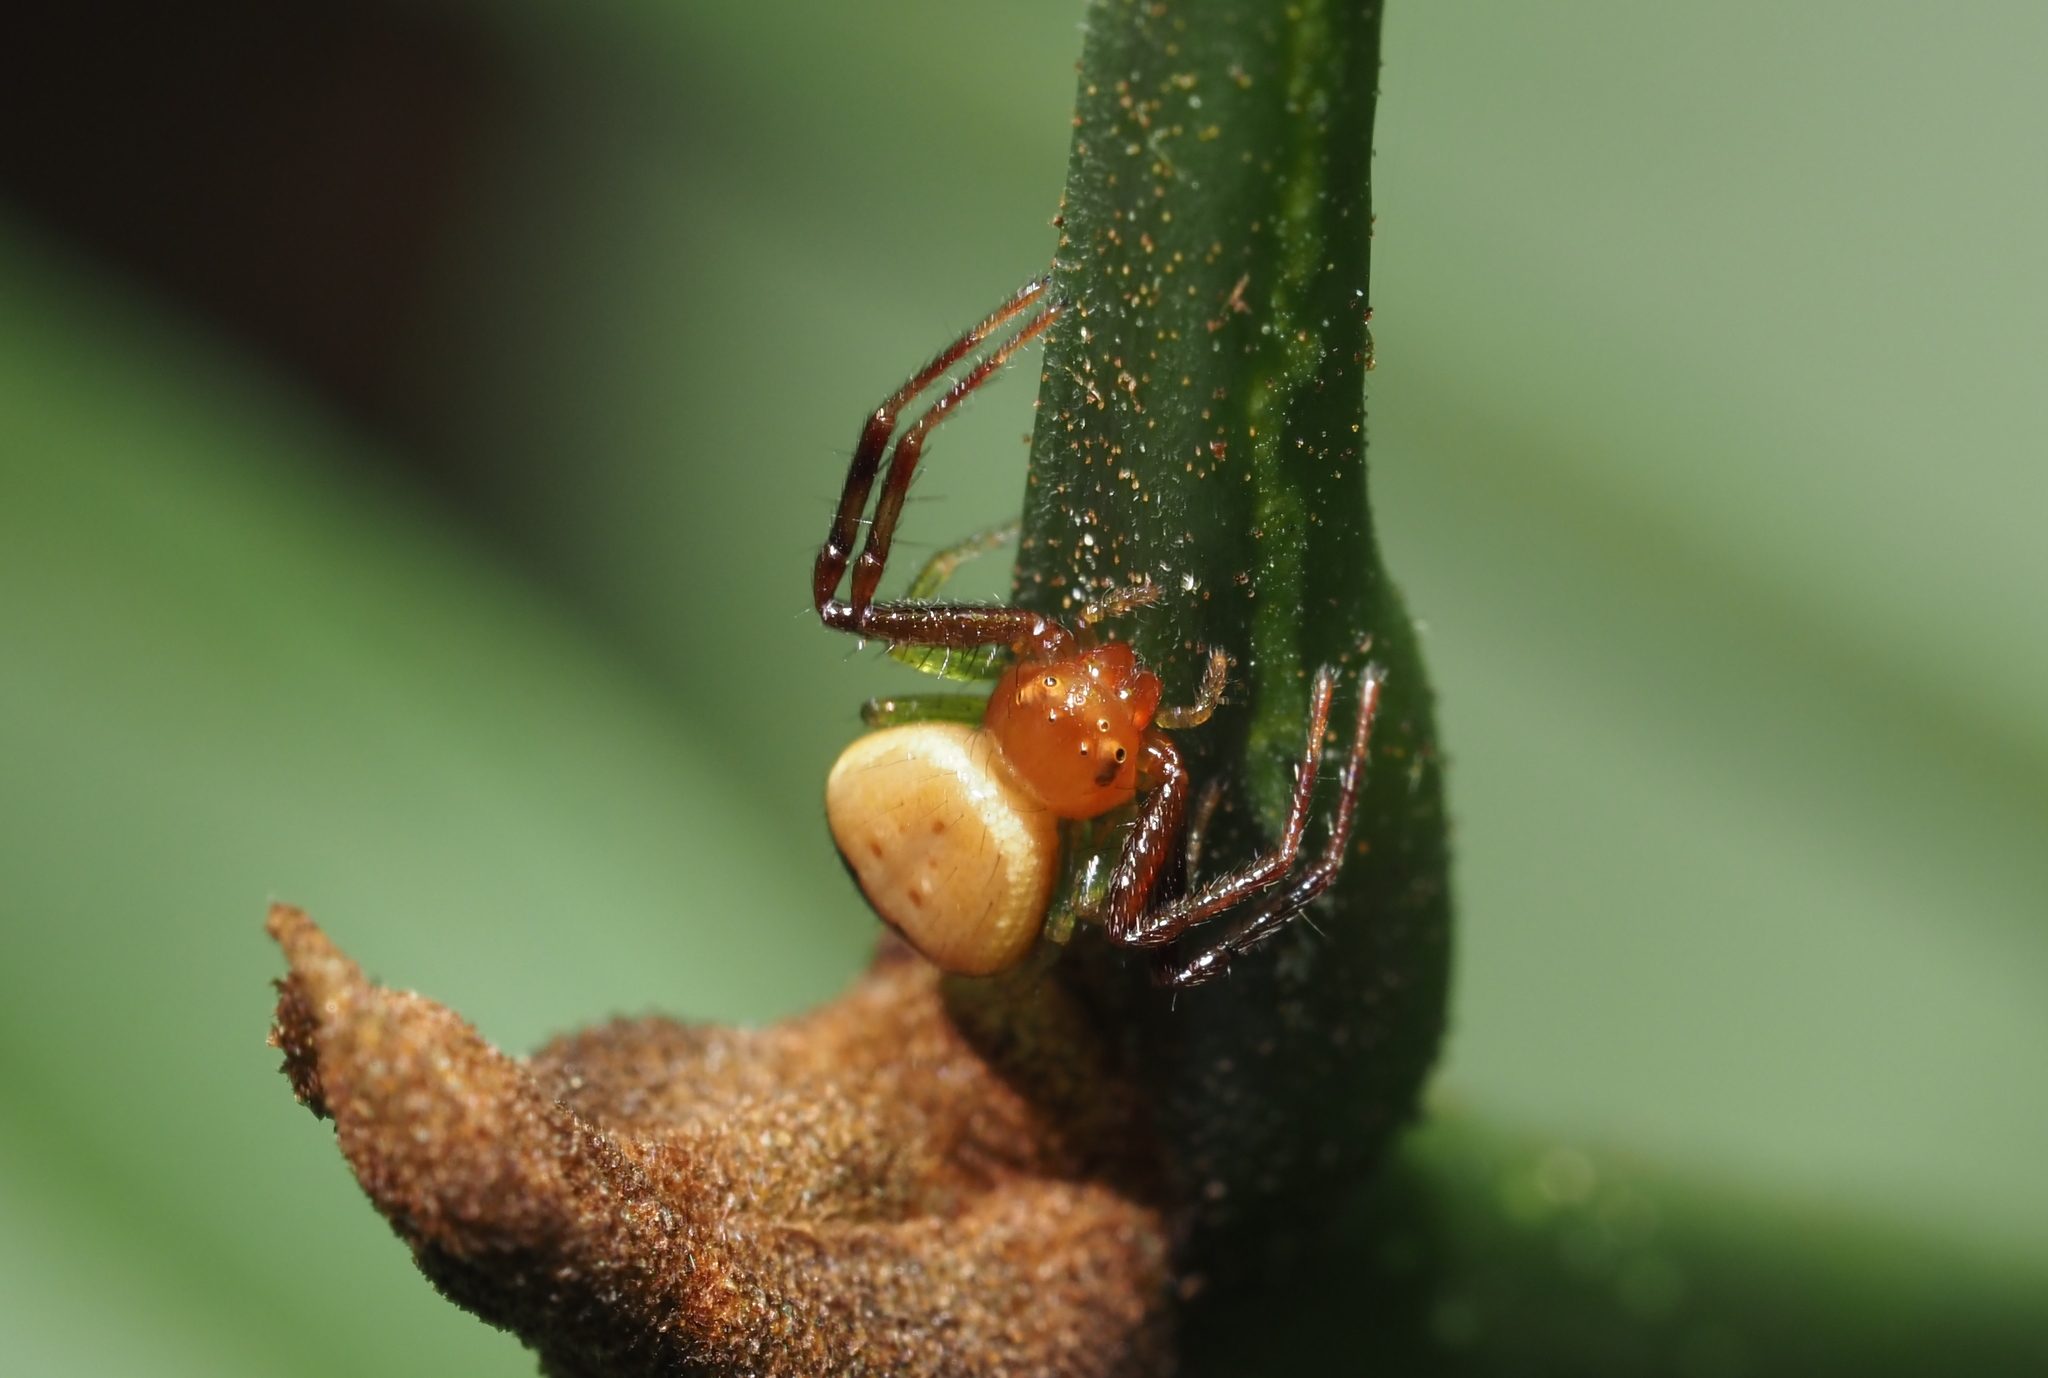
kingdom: Animalia
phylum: Arthropoda
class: Arachnida
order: Araneae
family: Thomisidae
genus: Synema
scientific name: Synema parvulum
